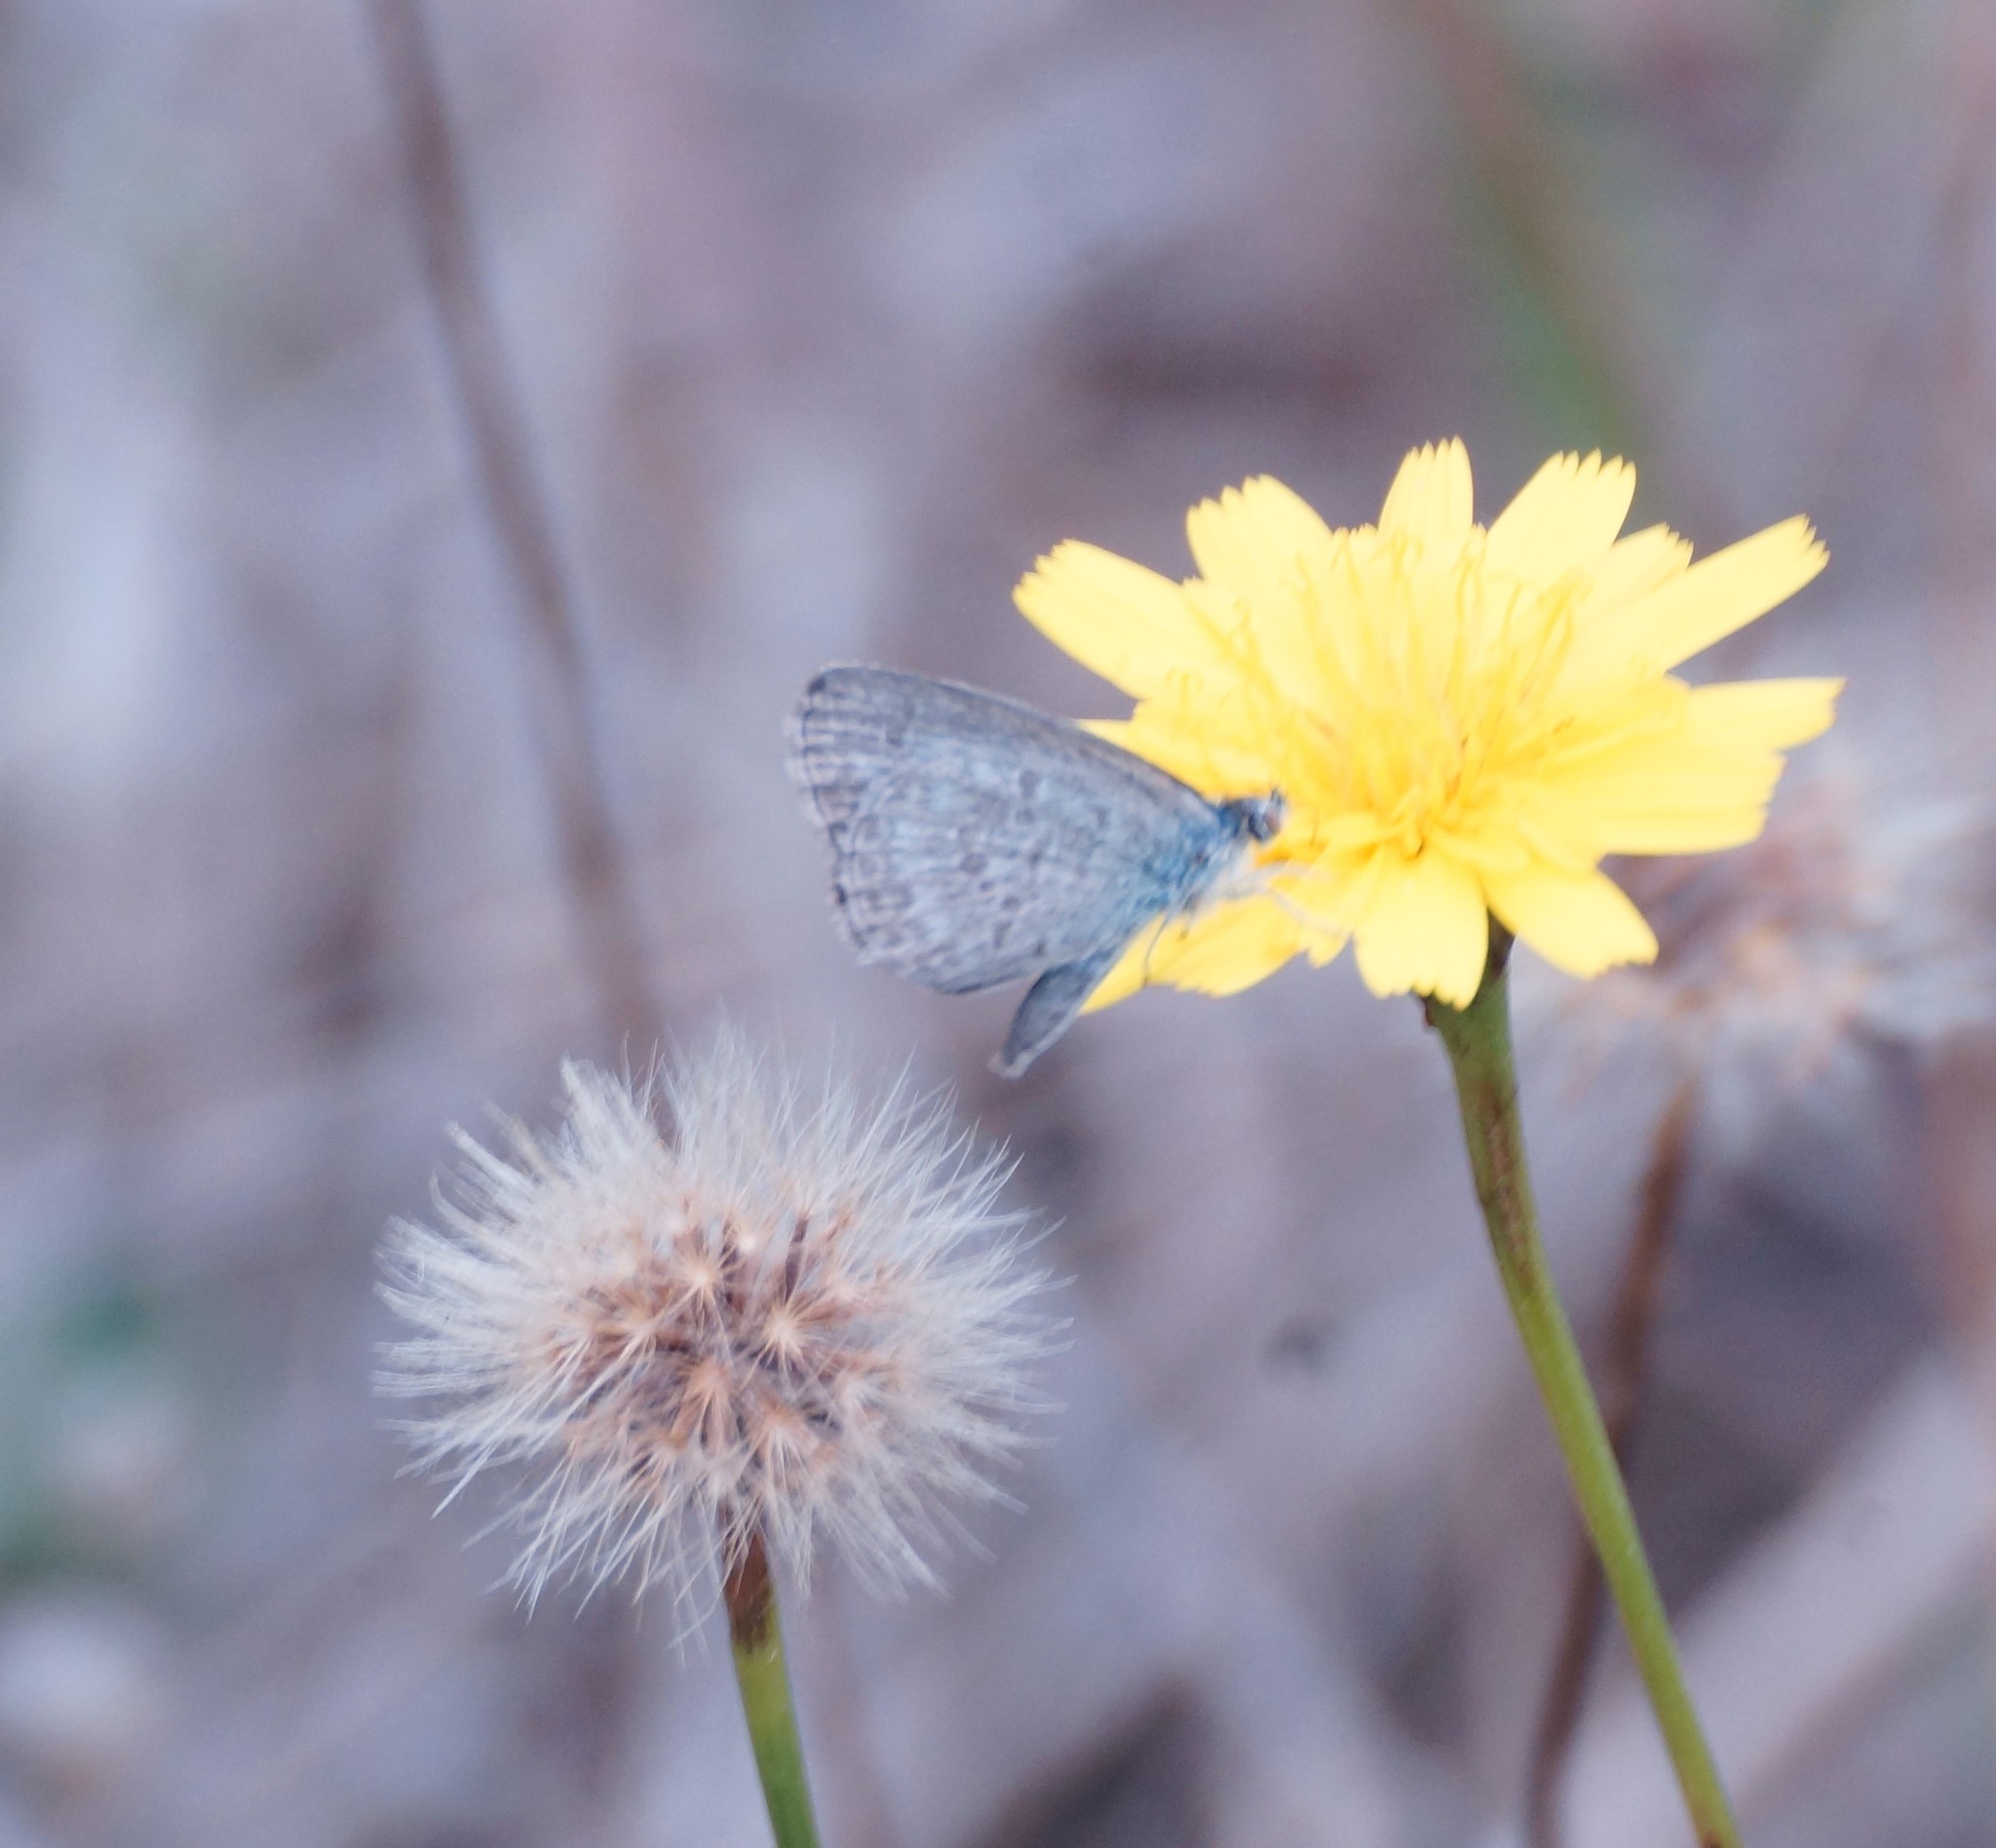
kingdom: Animalia
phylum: Arthropoda
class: Insecta
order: Lepidoptera
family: Lycaenidae
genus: Zizina
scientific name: Zizina labradus
